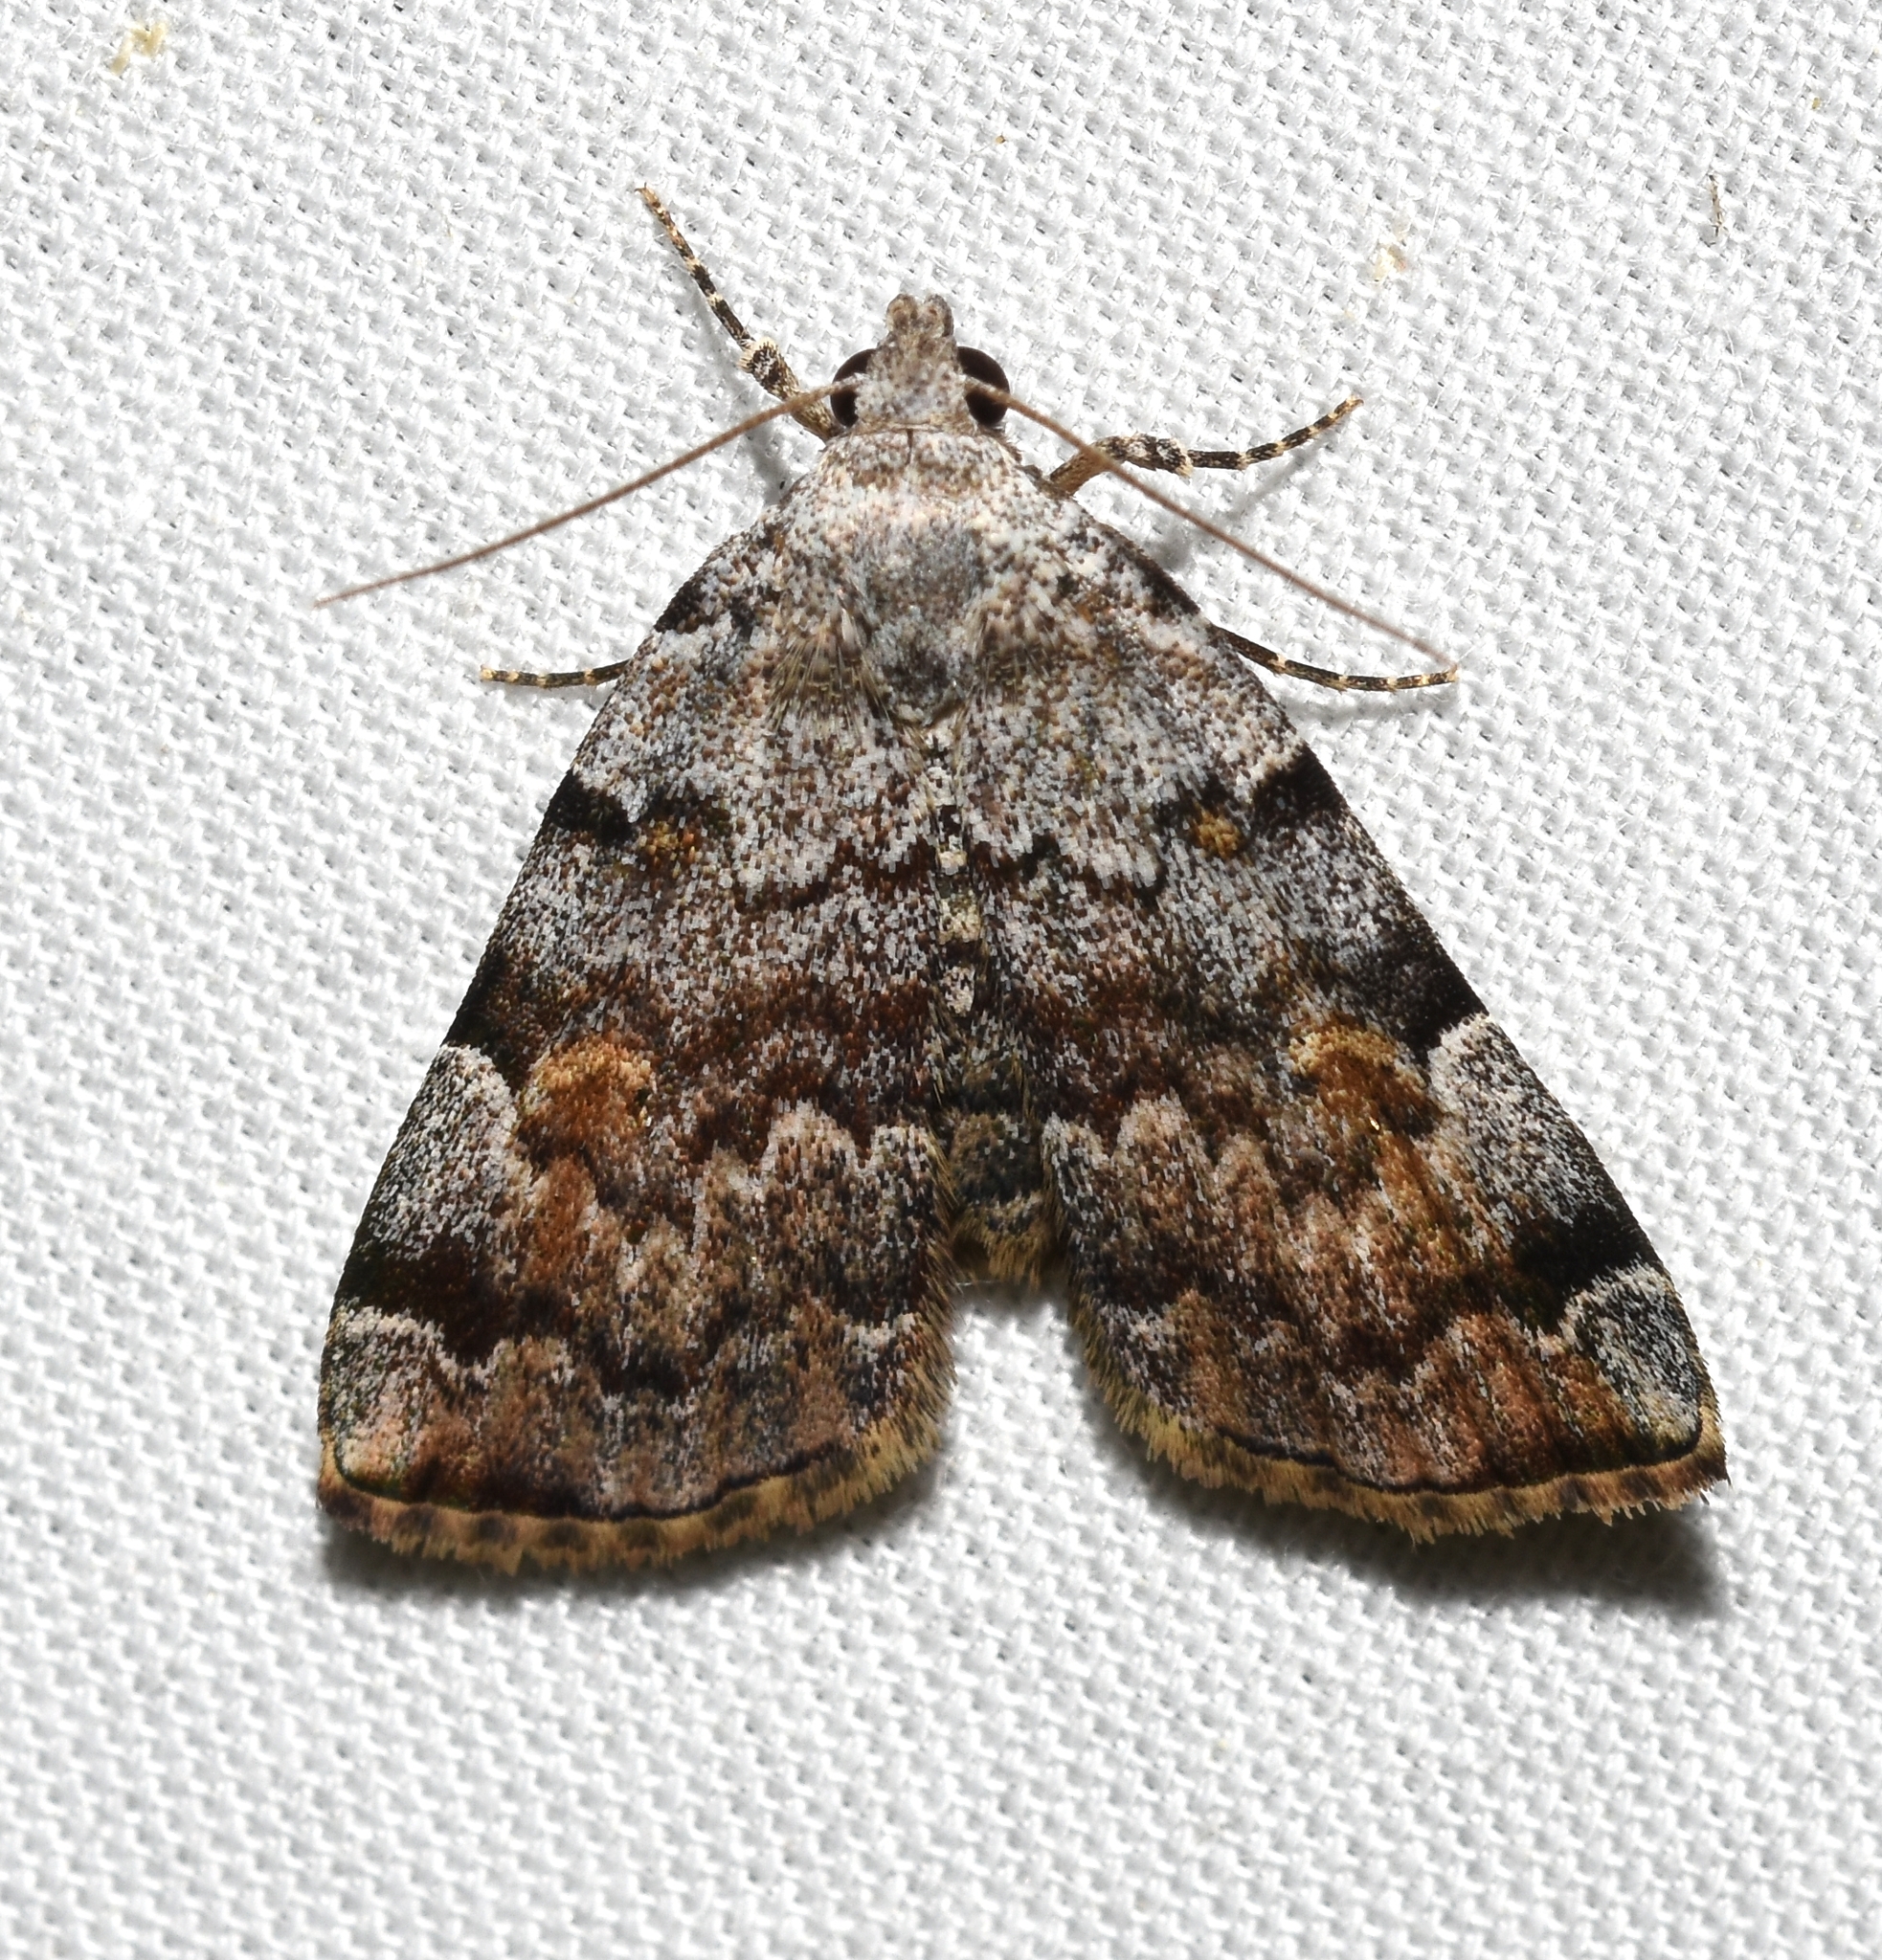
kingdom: Animalia
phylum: Arthropoda
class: Insecta
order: Lepidoptera
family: Erebidae
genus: Idia
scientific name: Idia americalis
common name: American idia moth
